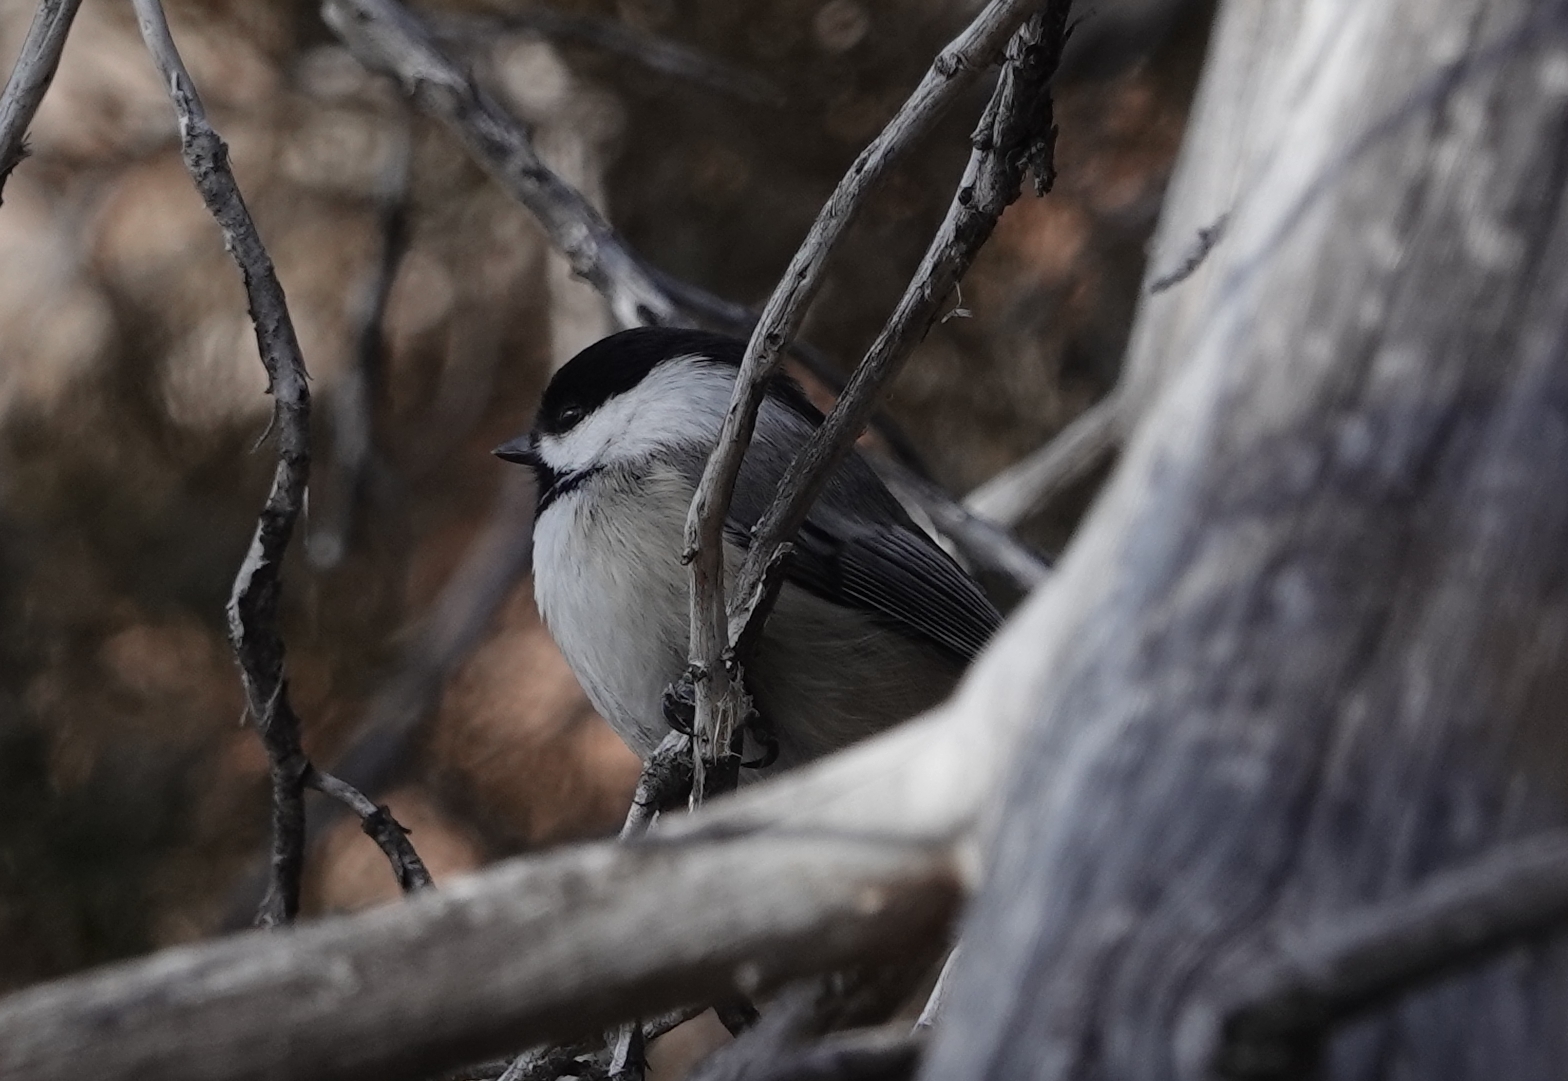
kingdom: Animalia
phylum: Chordata
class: Aves
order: Passeriformes
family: Paridae
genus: Poecile
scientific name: Poecile atricapillus
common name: Black-capped chickadee
